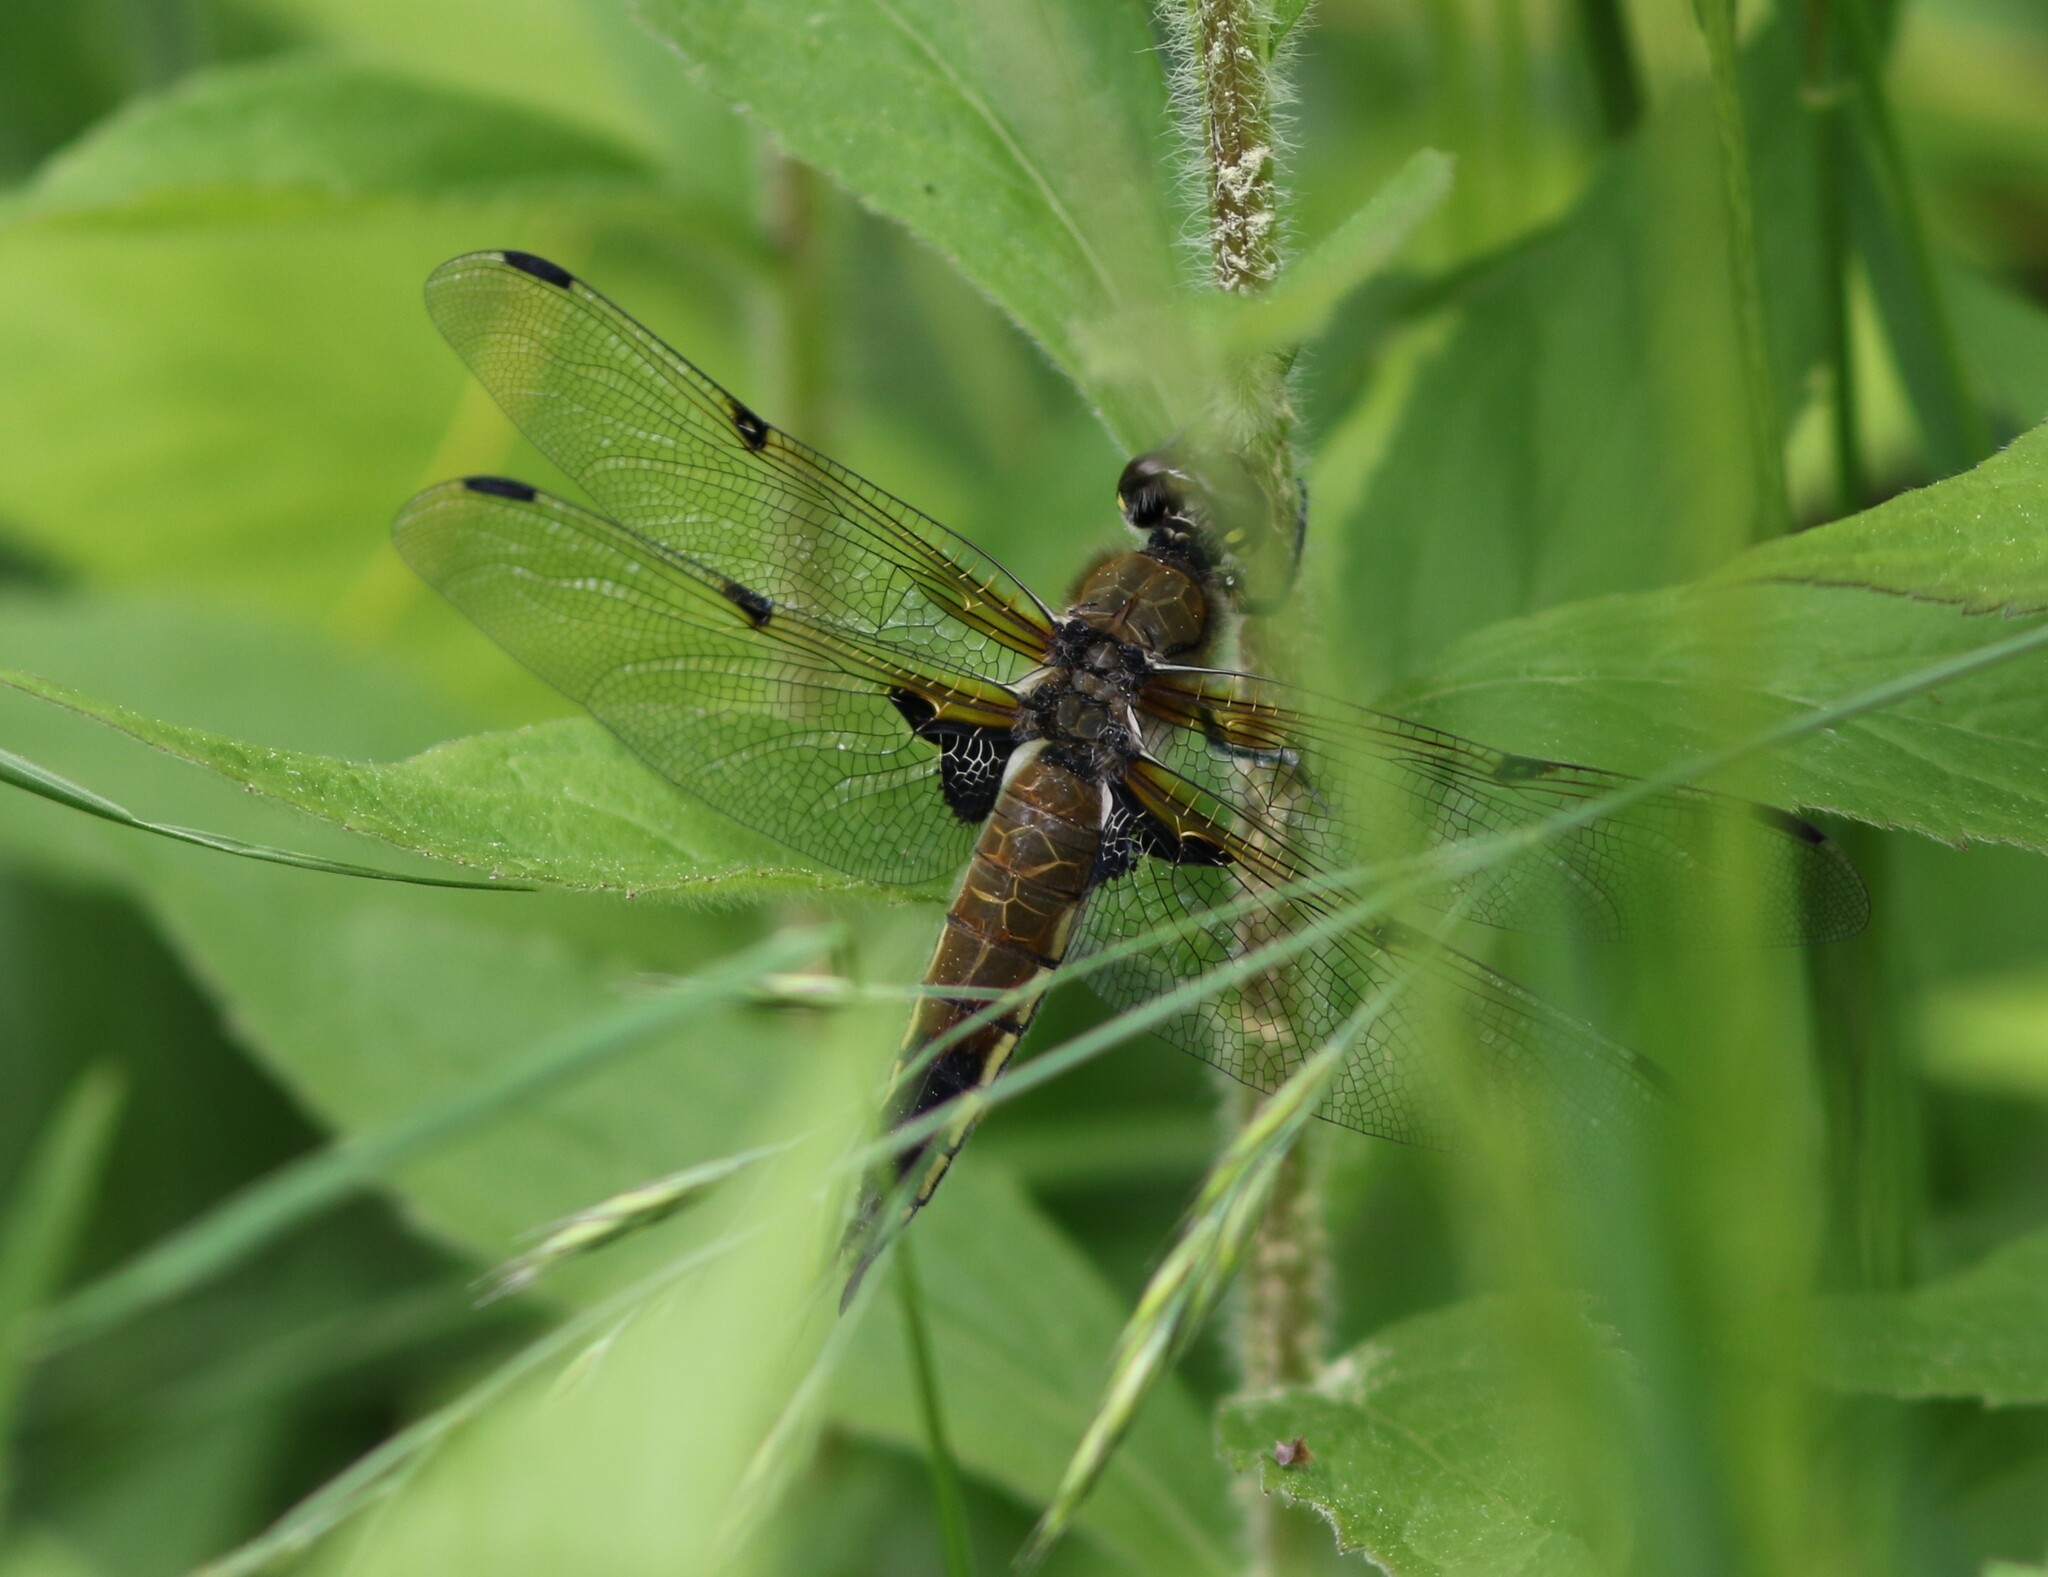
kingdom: Animalia
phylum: Arthropoda
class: Insecta
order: Odonata
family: Libellulidae
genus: Libellula
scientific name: Libellula quadrimaculata
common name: Four-spotted chaser
